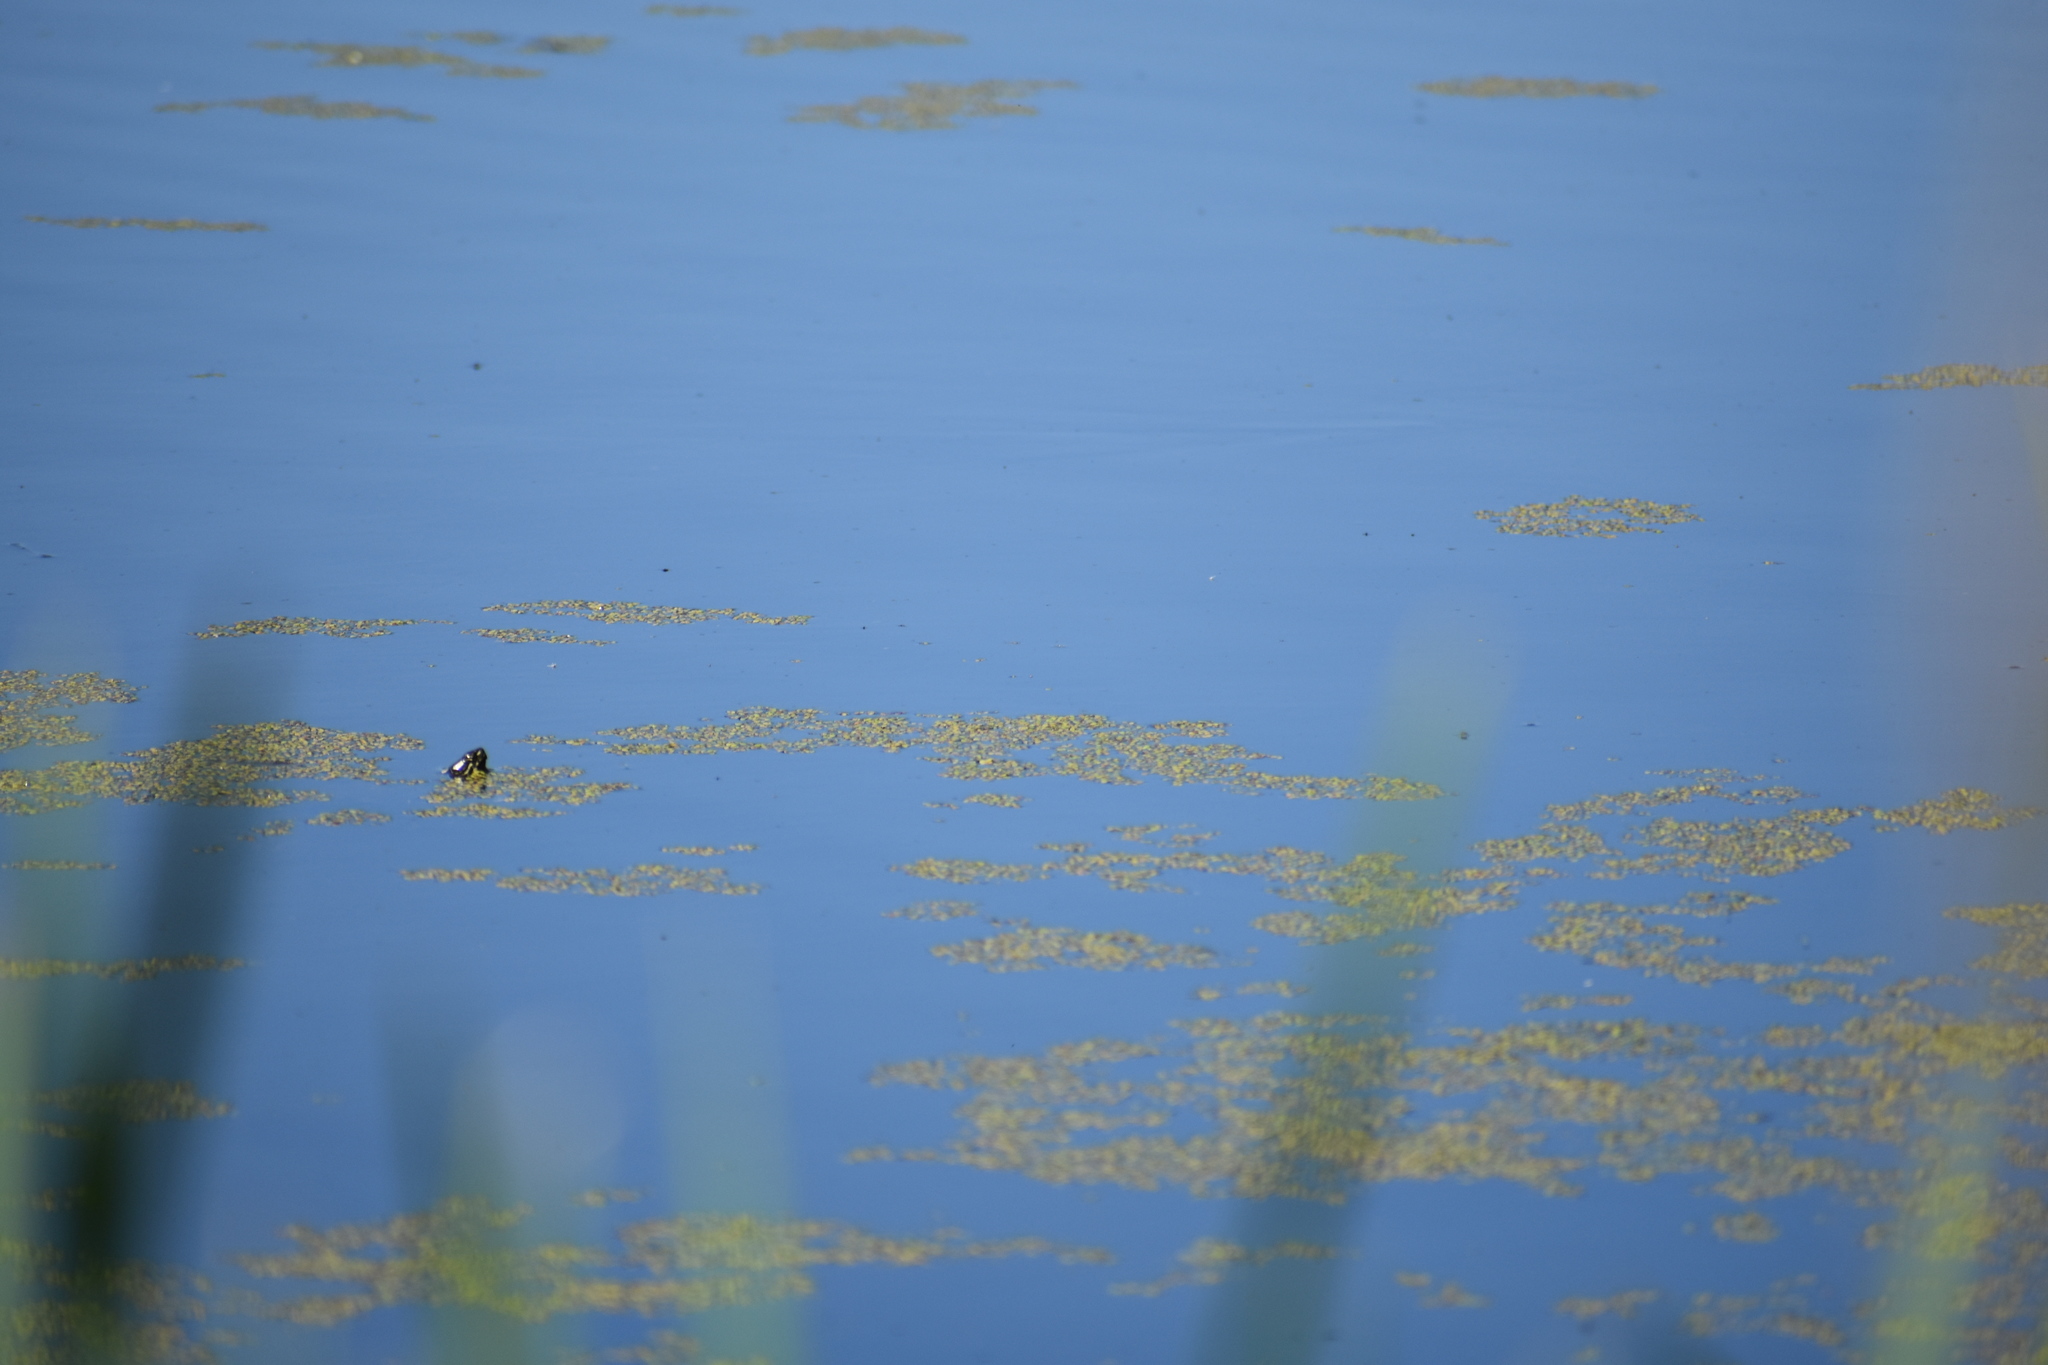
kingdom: Animalia
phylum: Chordata
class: Testudines
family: Emydidae
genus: Chrysemys
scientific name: Chrysemys picta
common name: Painted turtle
